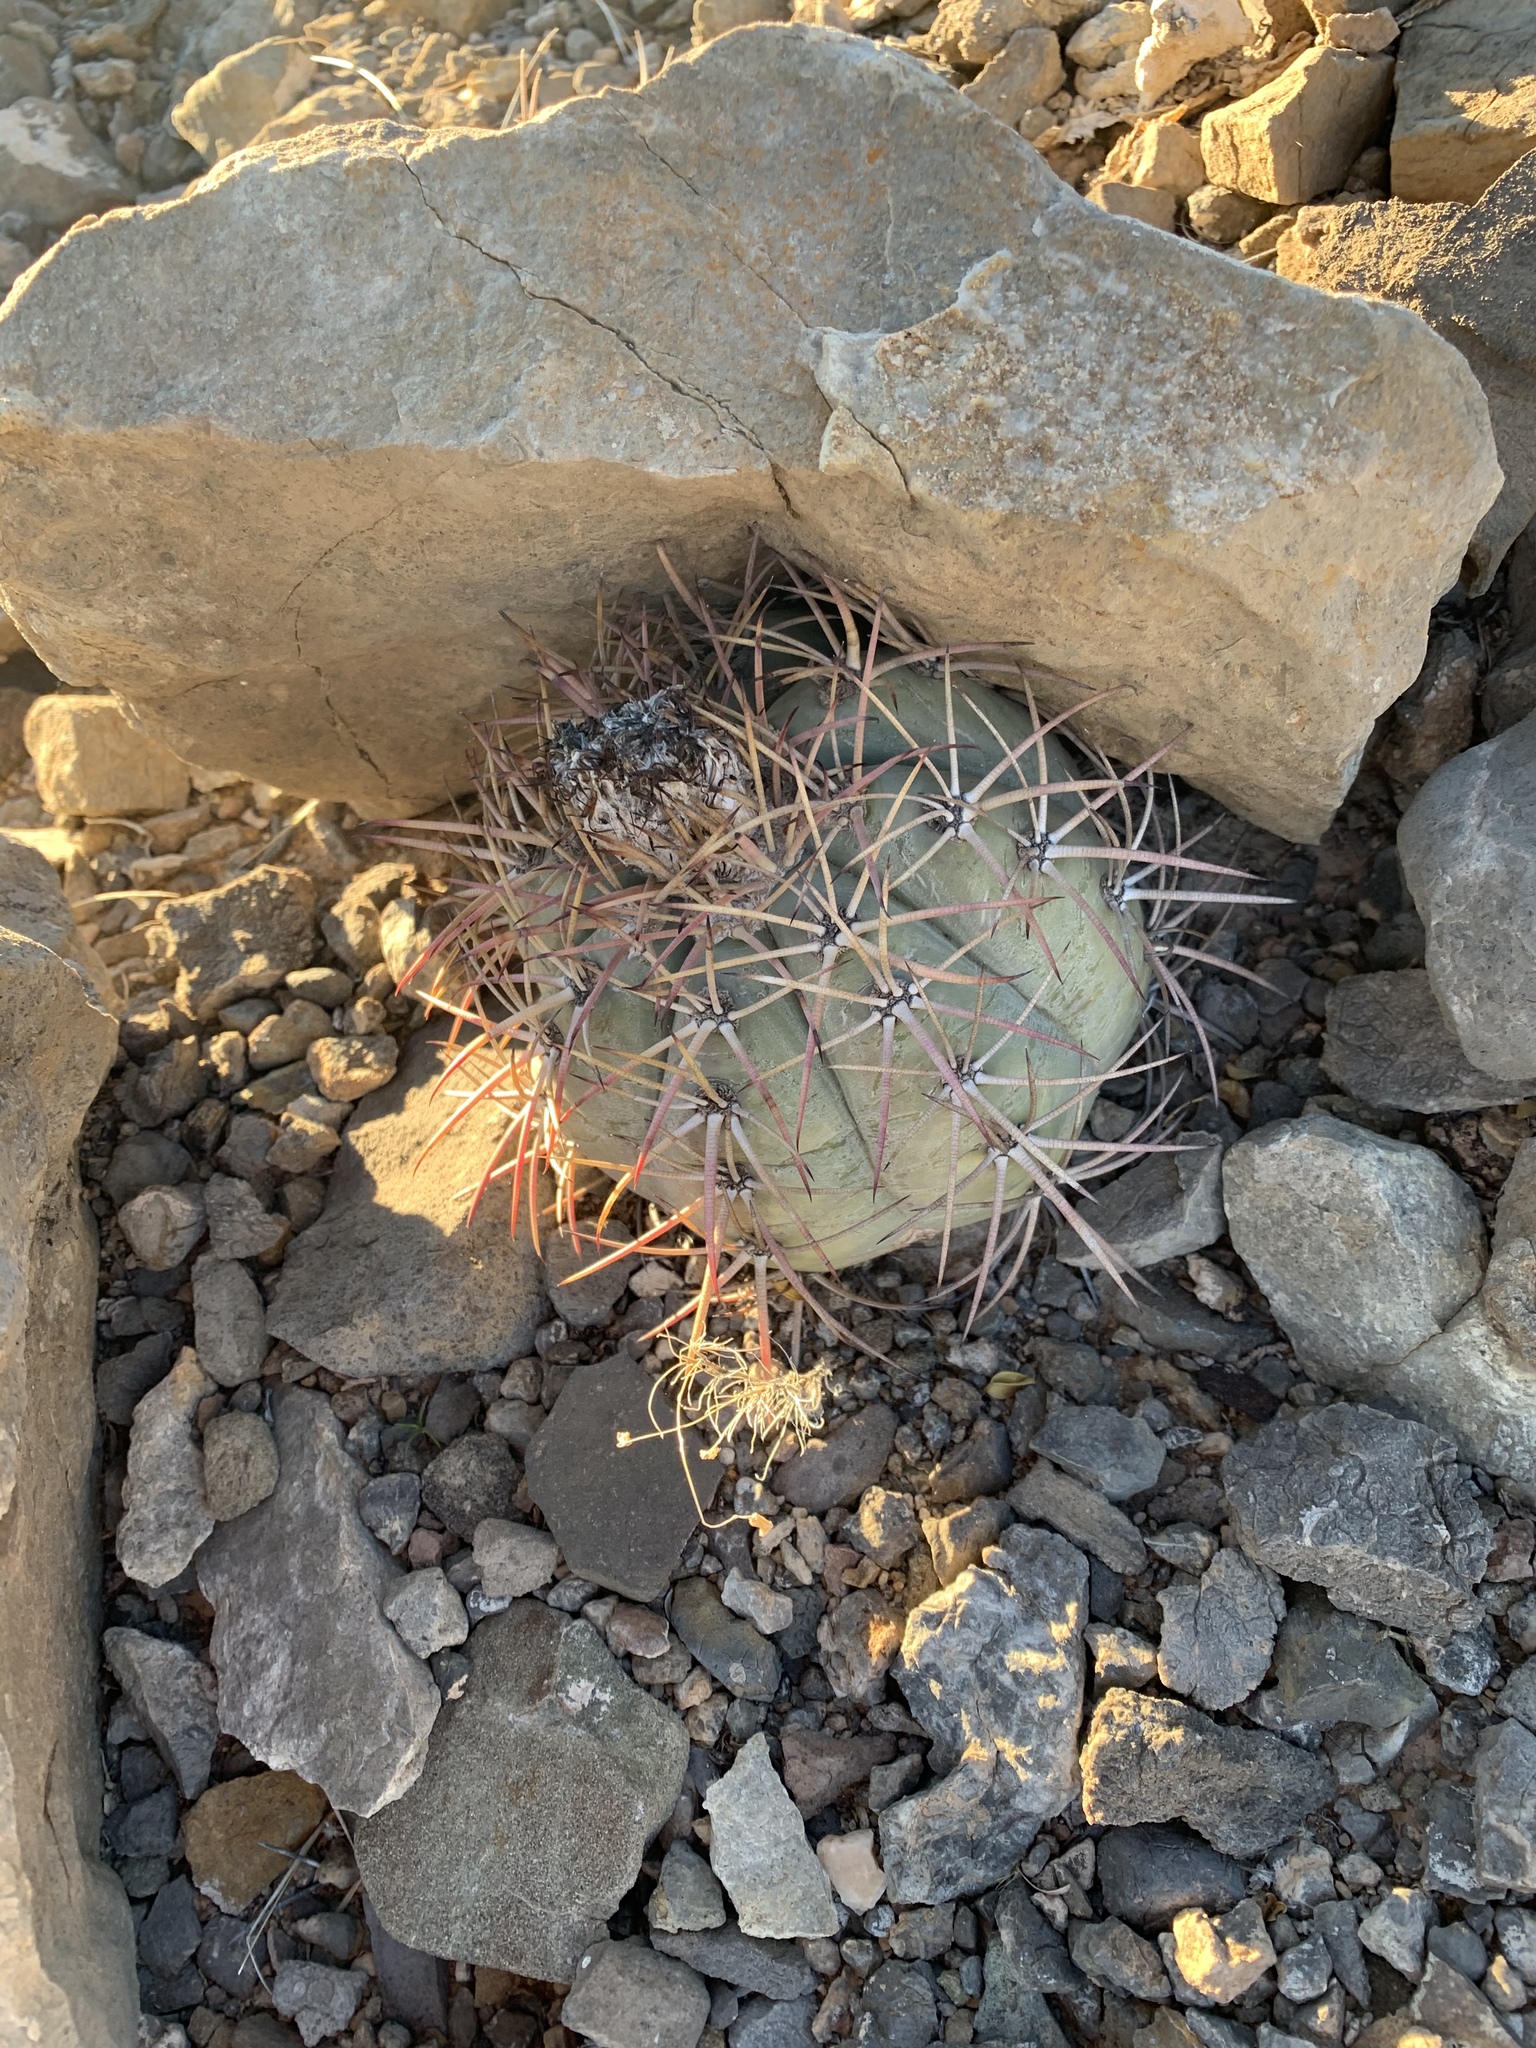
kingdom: Plantae
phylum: Tracheophyta
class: Magnoliopsida
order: Caryophyllales
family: Cactaceae
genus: Echinocactus
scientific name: Echinocactus horizonthalonius
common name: Devilshead
